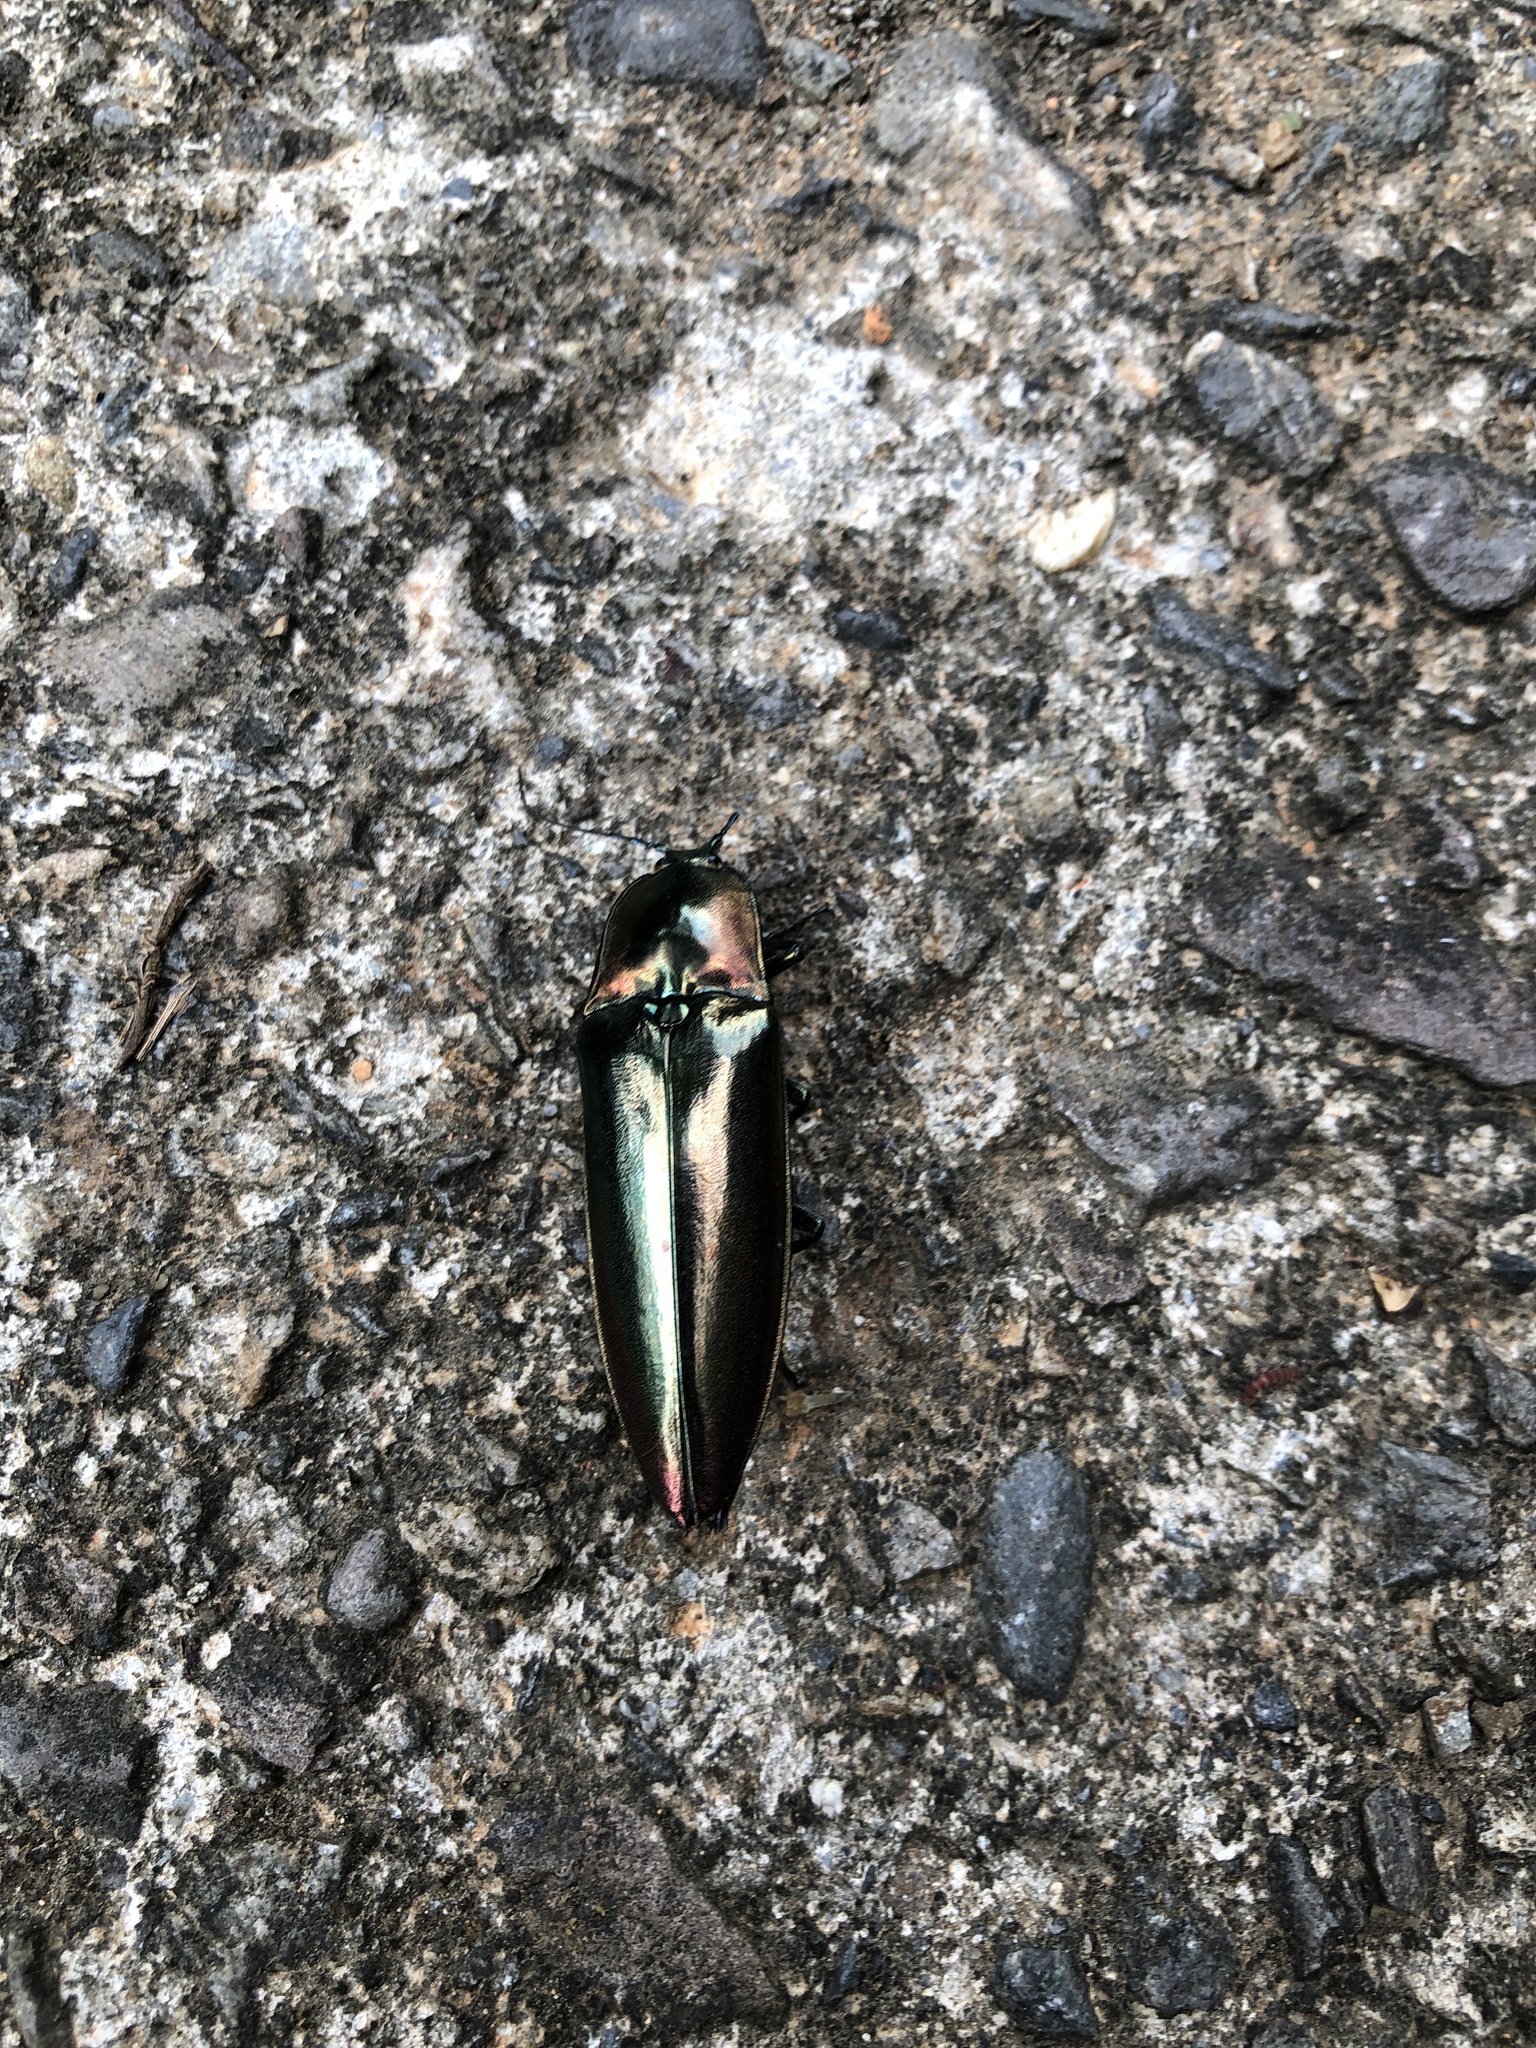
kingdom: Animalia
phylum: Arthropoda
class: Insecta
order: Coleoptera
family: Elateridae
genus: Campsosternus
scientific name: Campsosternus auratus
